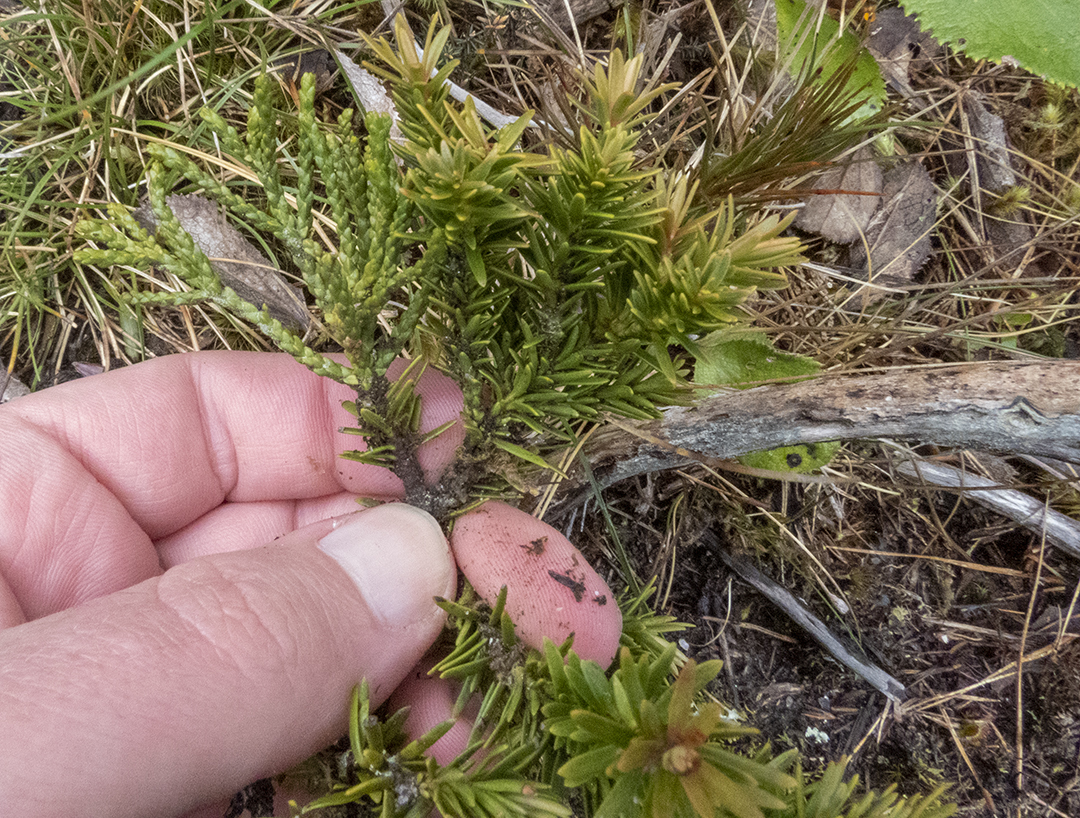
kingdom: Plantae
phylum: Tracheophyta
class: Pinopsida
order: Pinales
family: Podocarpaceae
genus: Halocarpus
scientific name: Halocarpus biformis
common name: Alpine tarwood
